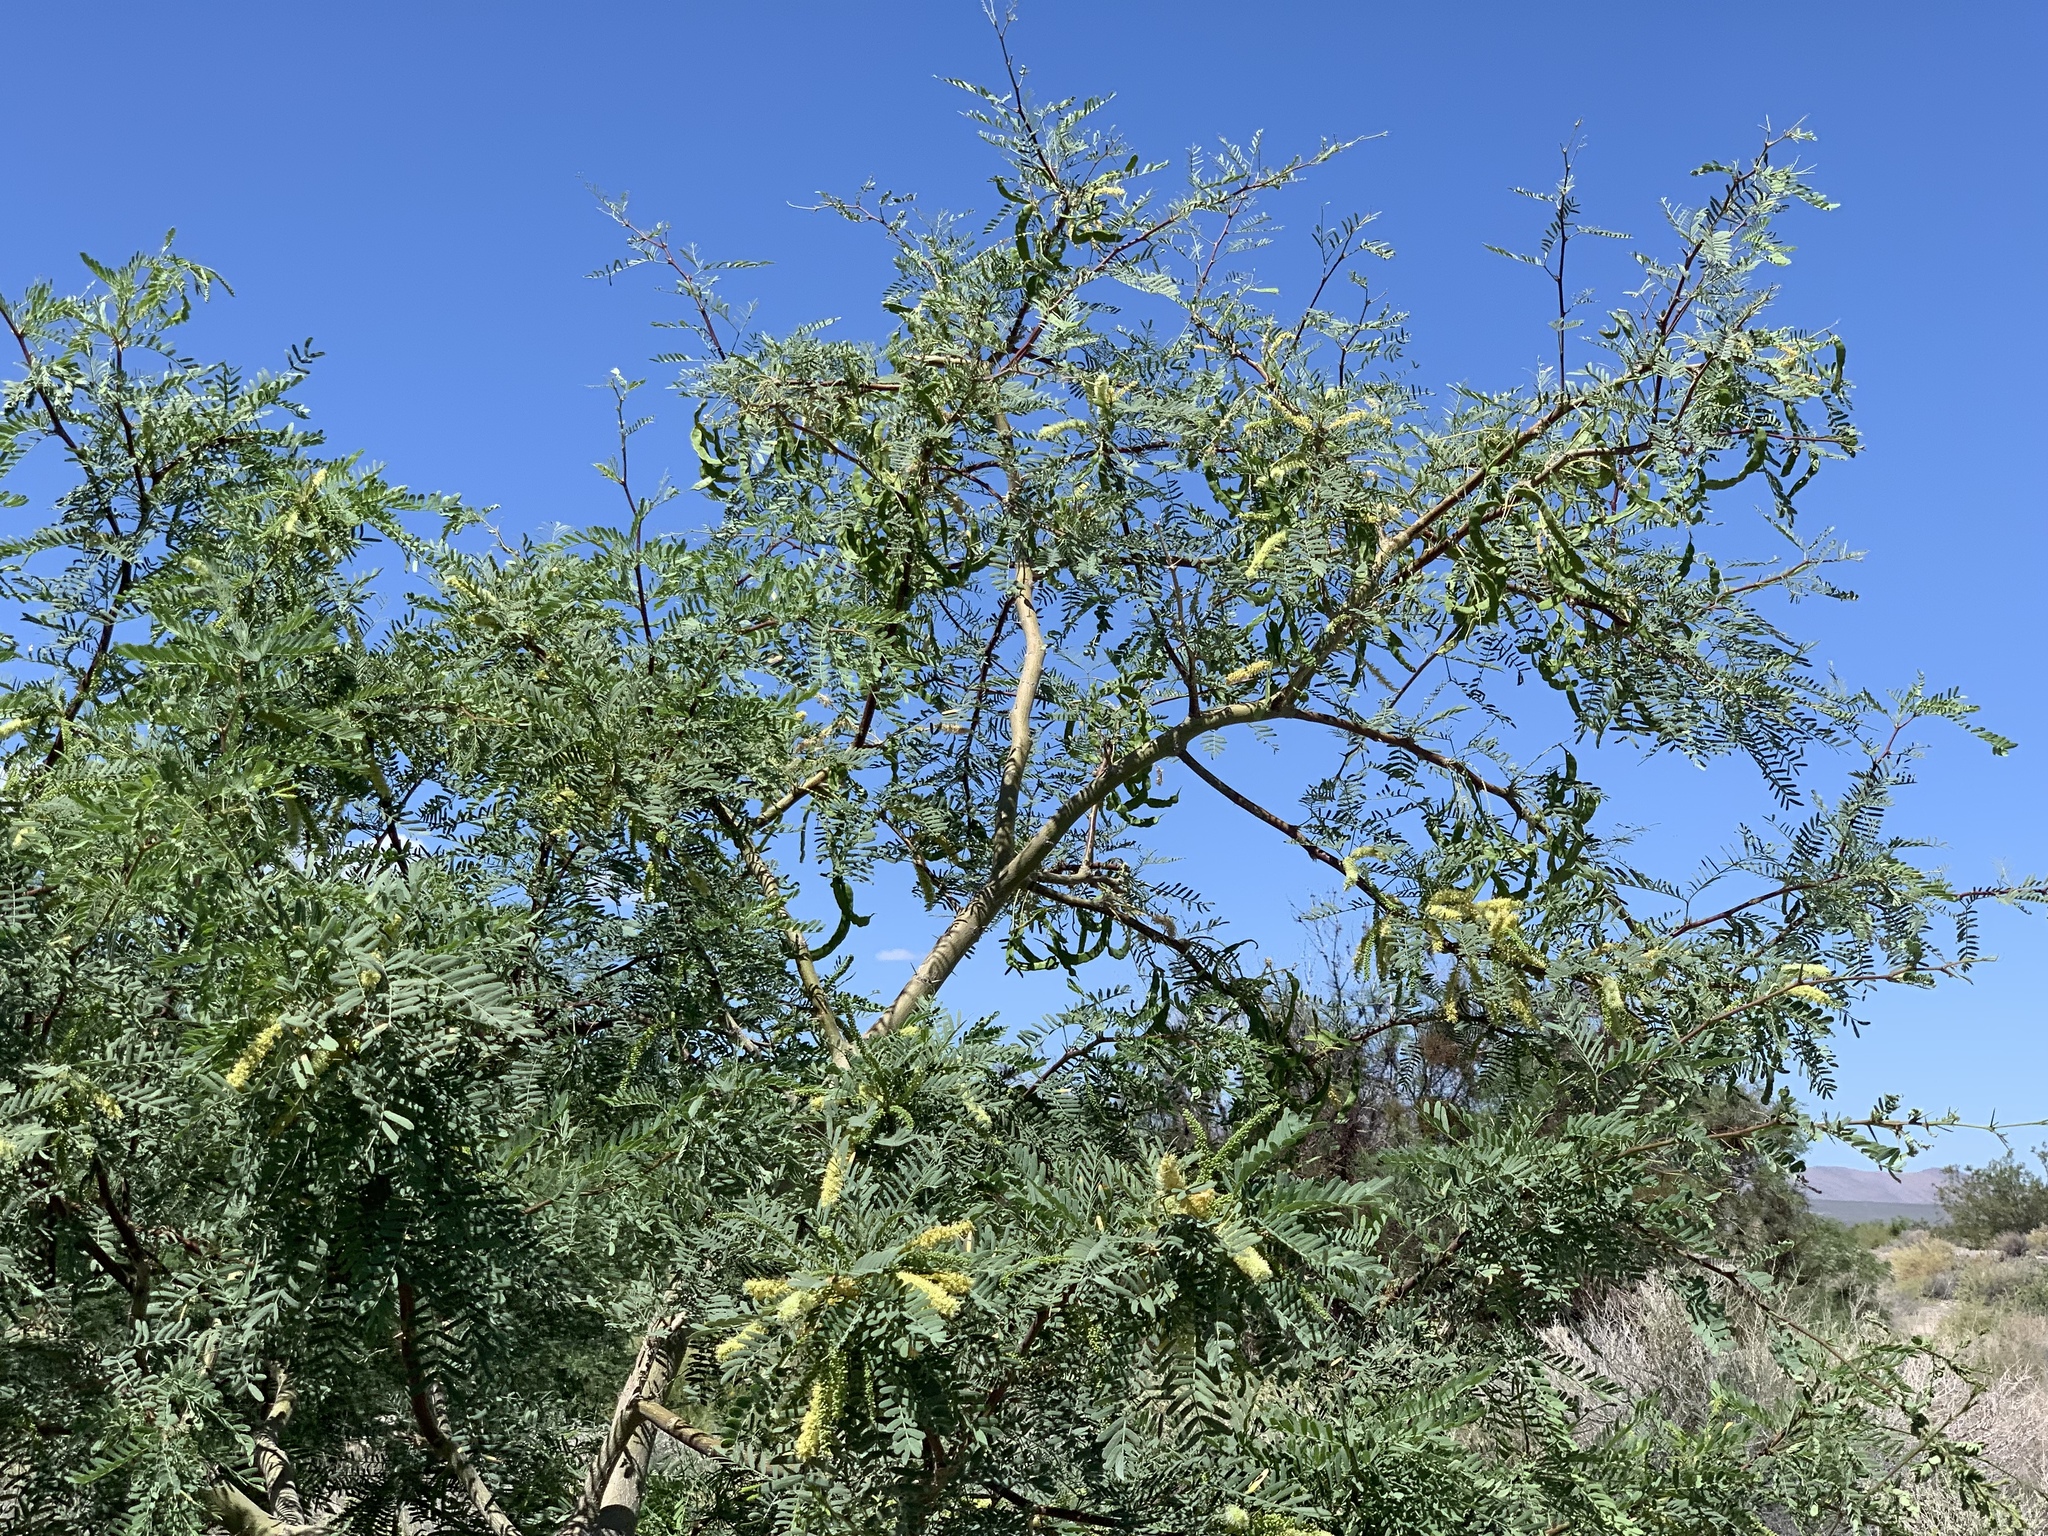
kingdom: Plantae
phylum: Tracheophyta
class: Magnoliopsida
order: Fabales
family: Fabaceae
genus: Prosopis
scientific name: Prosopis pubescens
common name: Screw-bean
